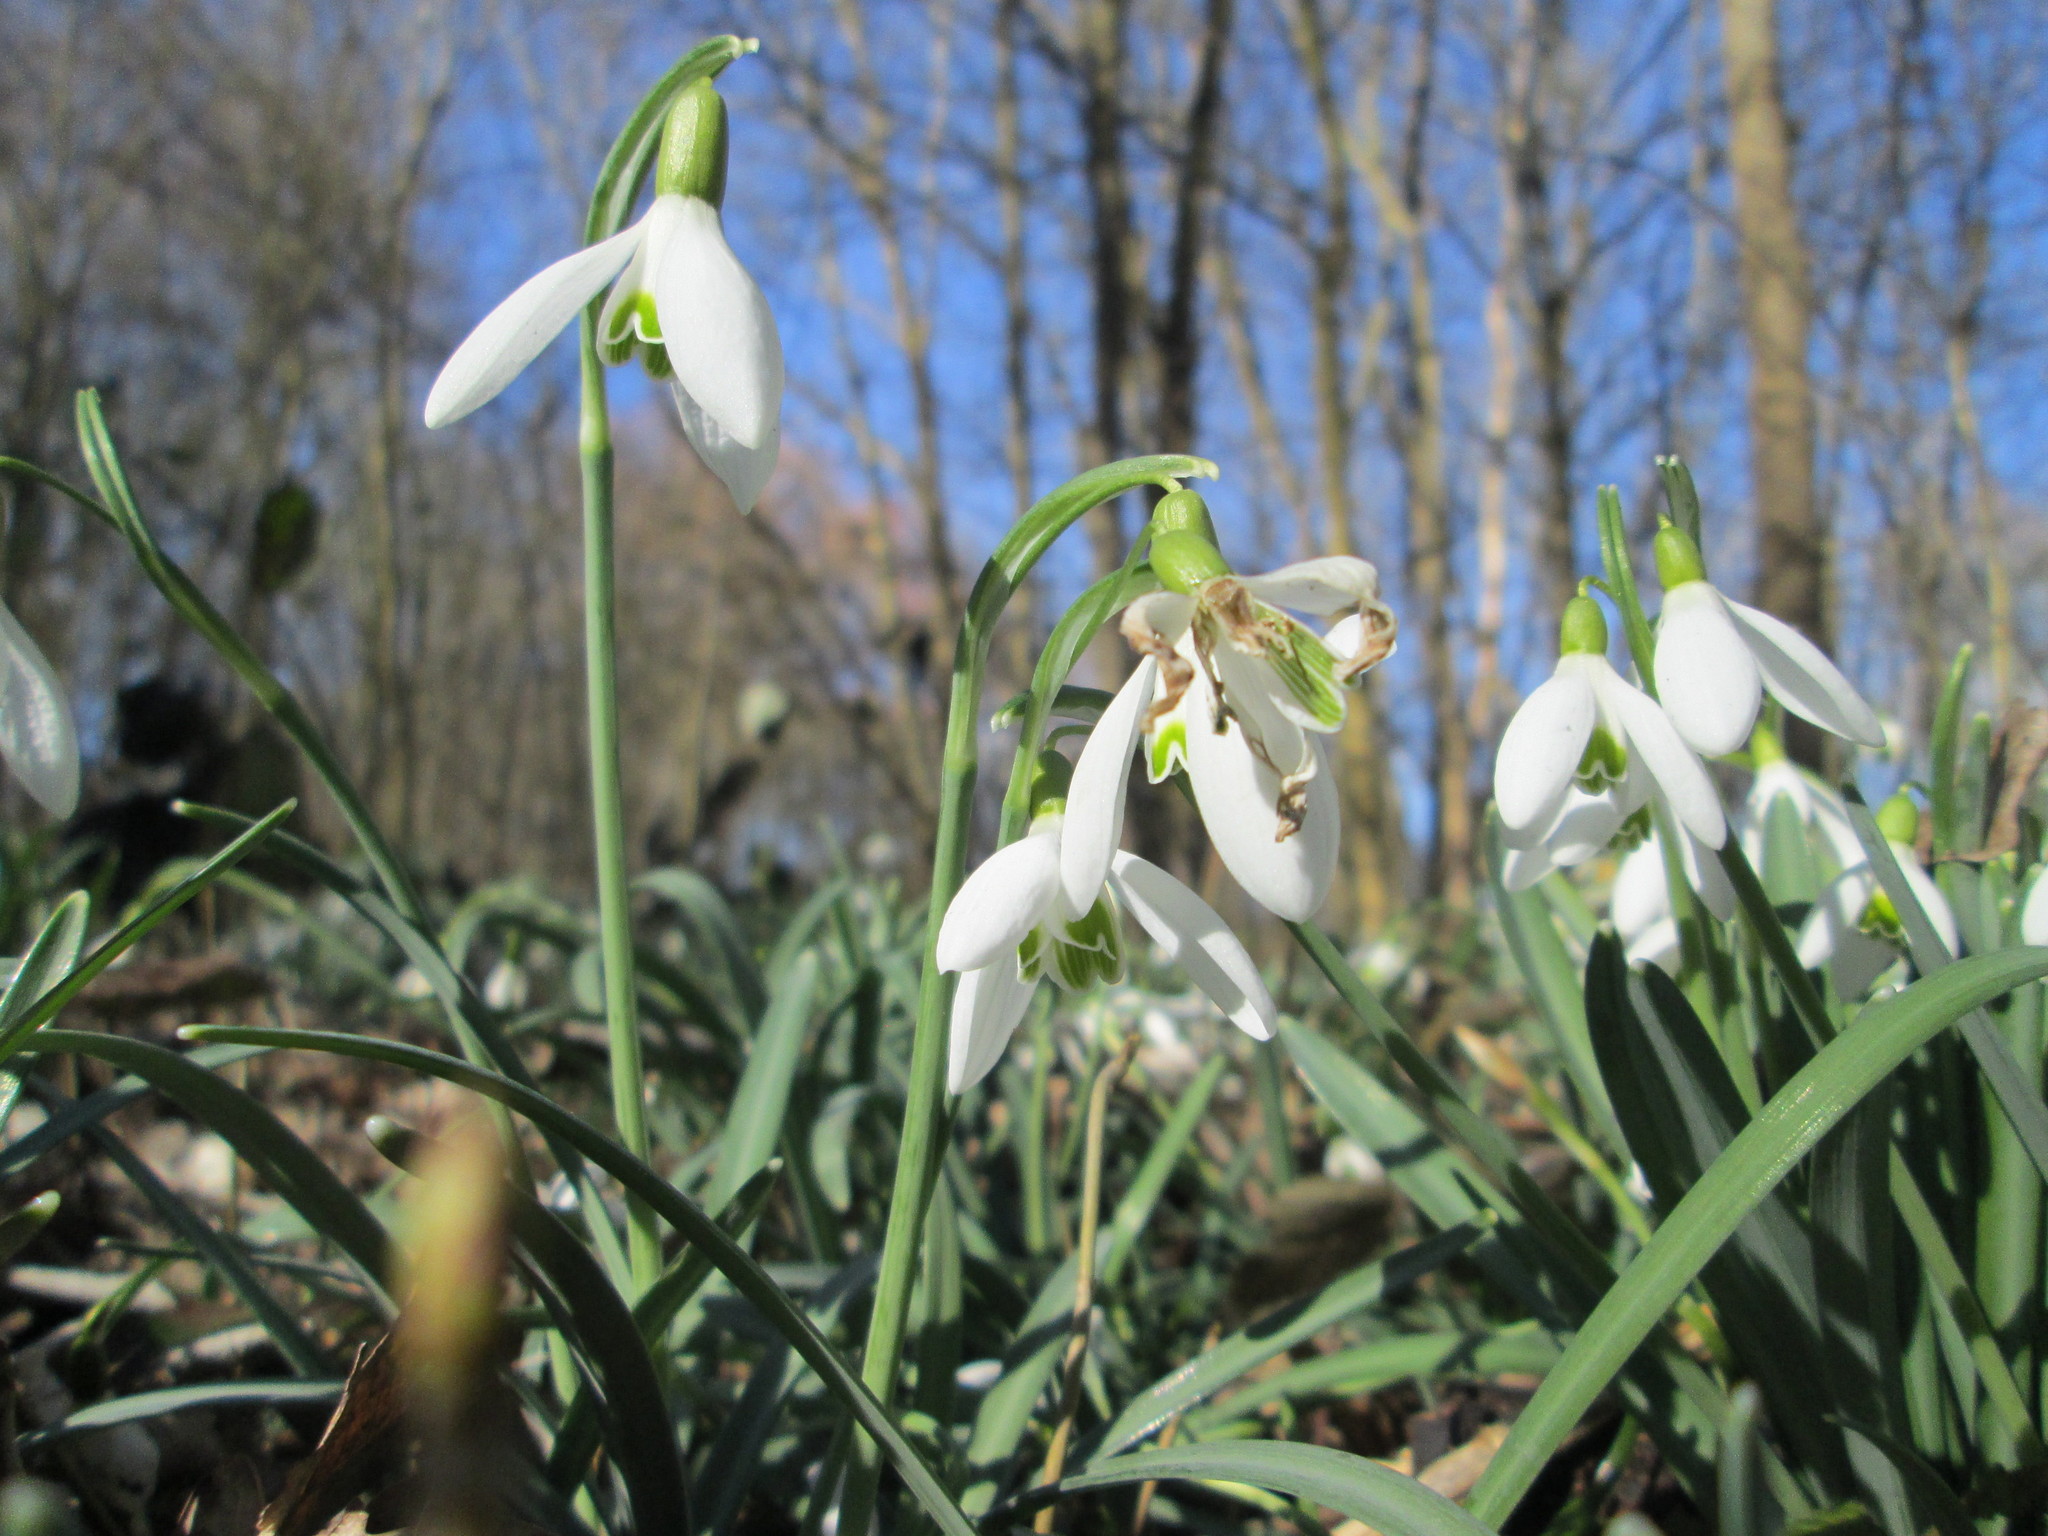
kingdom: Plantae
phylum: Tracheophyta
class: Liliopsida
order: Asparagales
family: Amaryllidaceae
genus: Galanthus
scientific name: Galanthus nivalis
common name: Snowdrop
